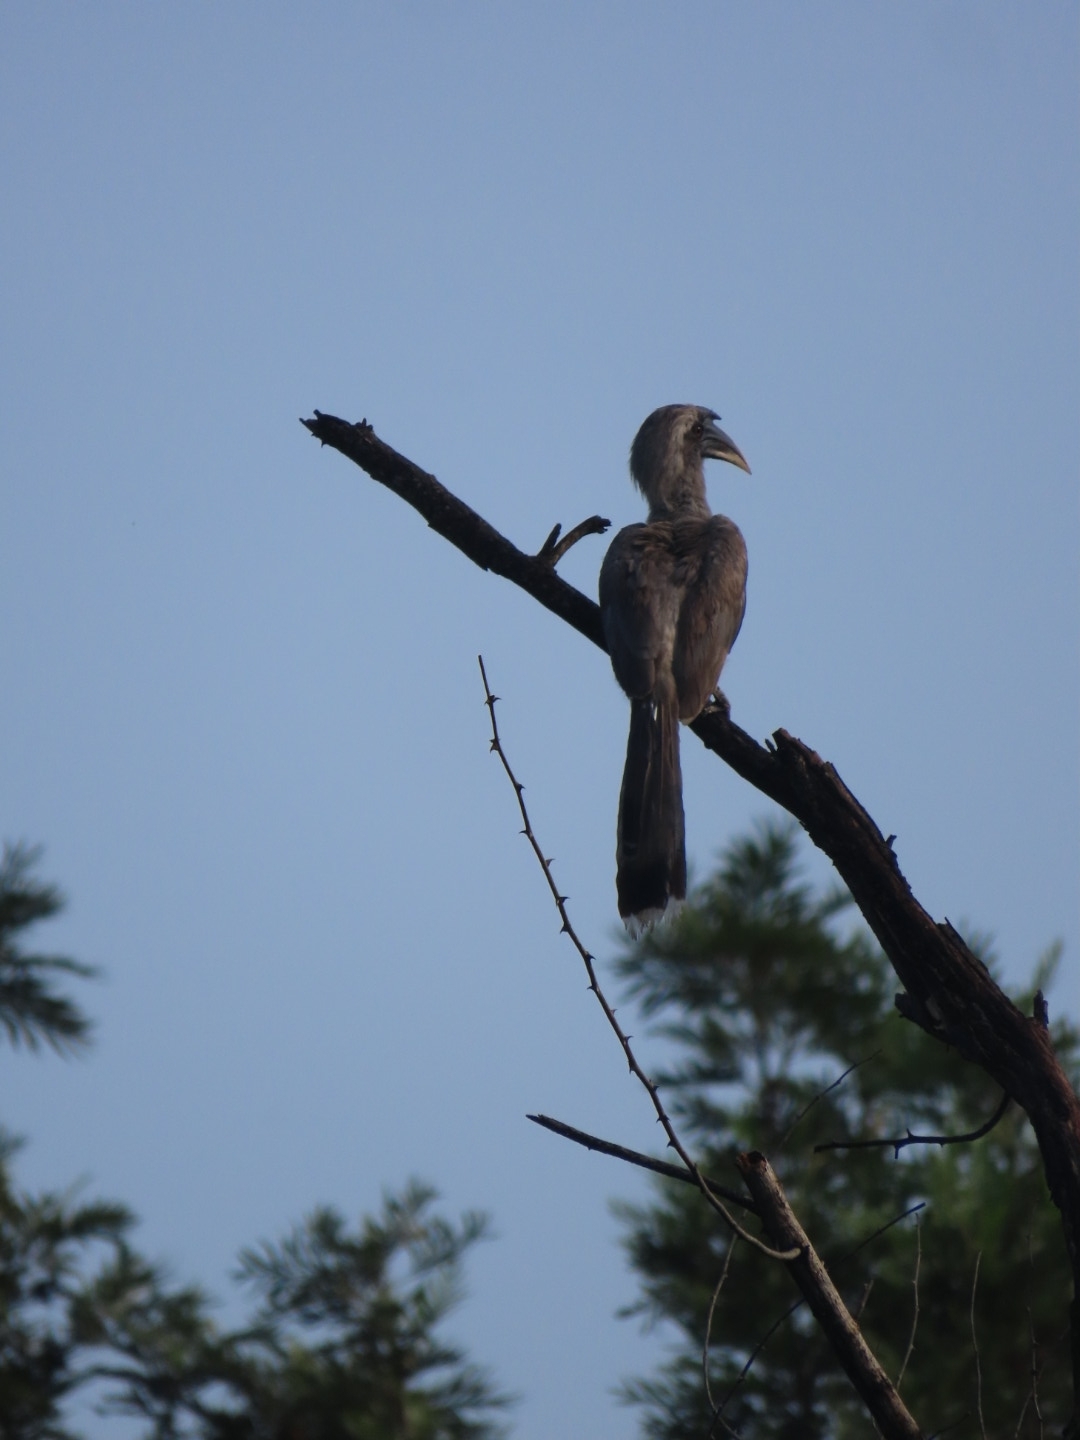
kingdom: Animalia
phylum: Chordata
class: Aves
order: Bucerotiformes
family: Bucerotidae
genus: Ocyceros
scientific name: Ocyceros birostris
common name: Indian grey hornbill
